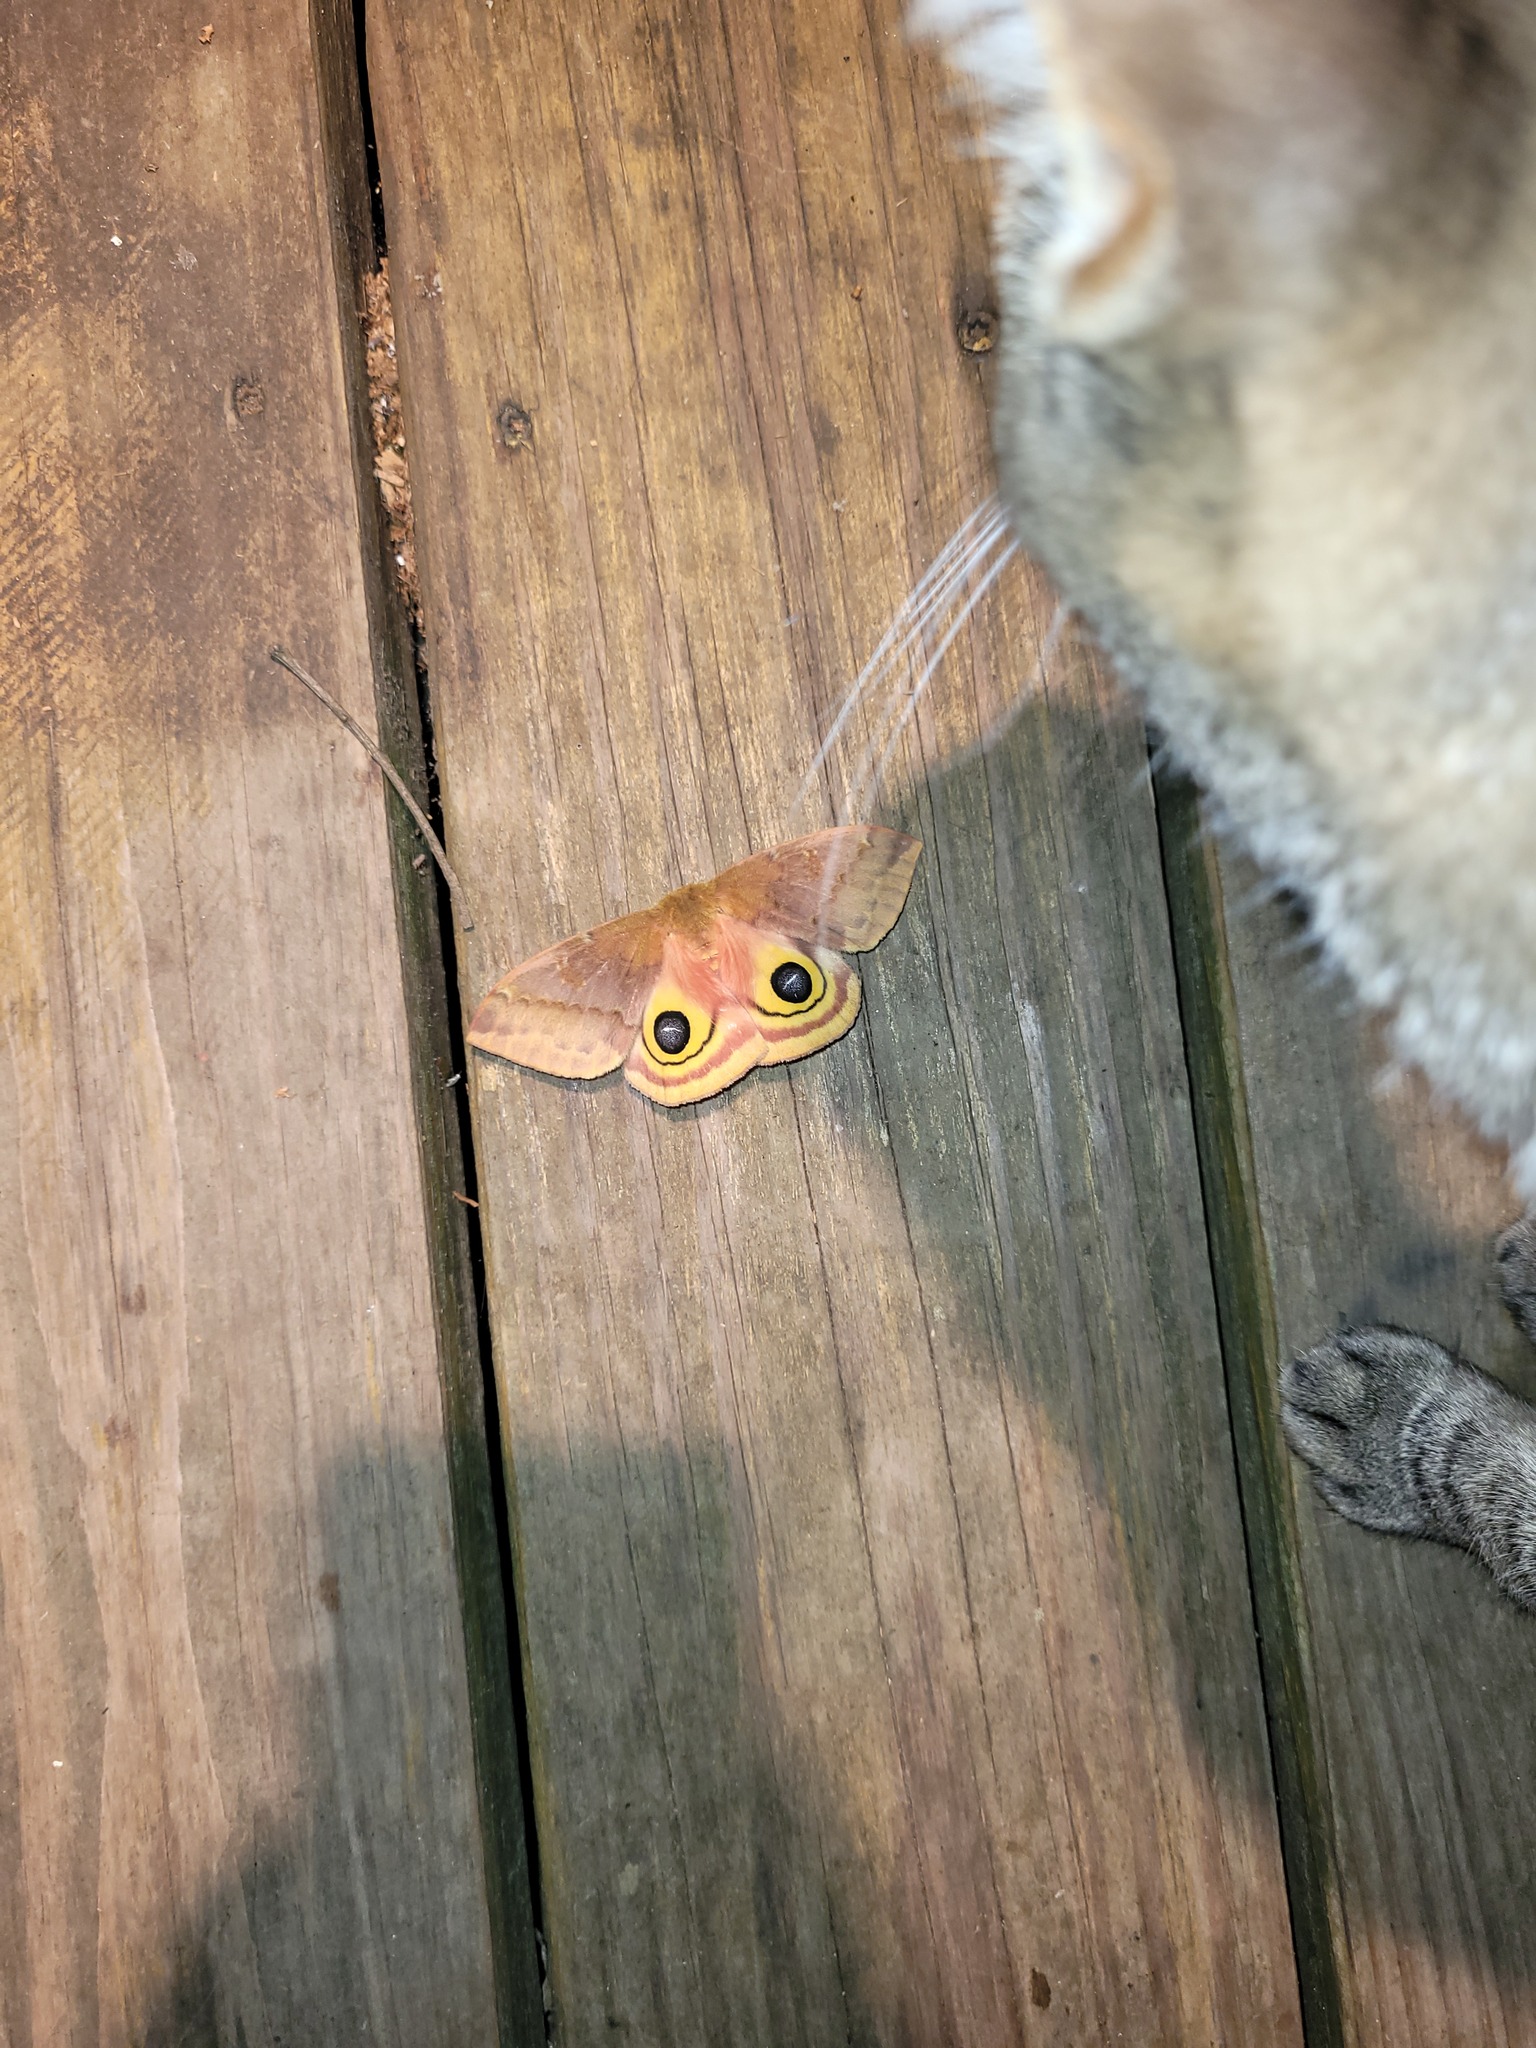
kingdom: Animalia
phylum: Arthropoda
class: Insecta
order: Lepidoptera
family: Saturniidae
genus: Automeris
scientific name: Automeris io
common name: Io moth
